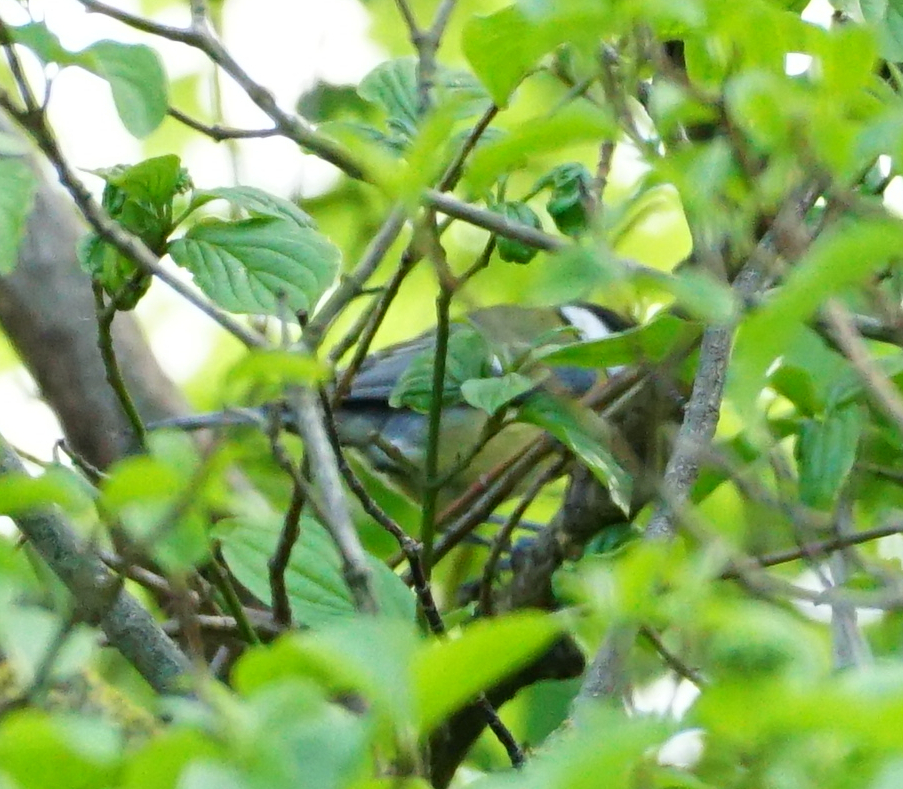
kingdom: Animalia
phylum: Chordata
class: Aves
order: Passeriformes
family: Paridae
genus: Parus
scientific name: Parus major
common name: Great tit
